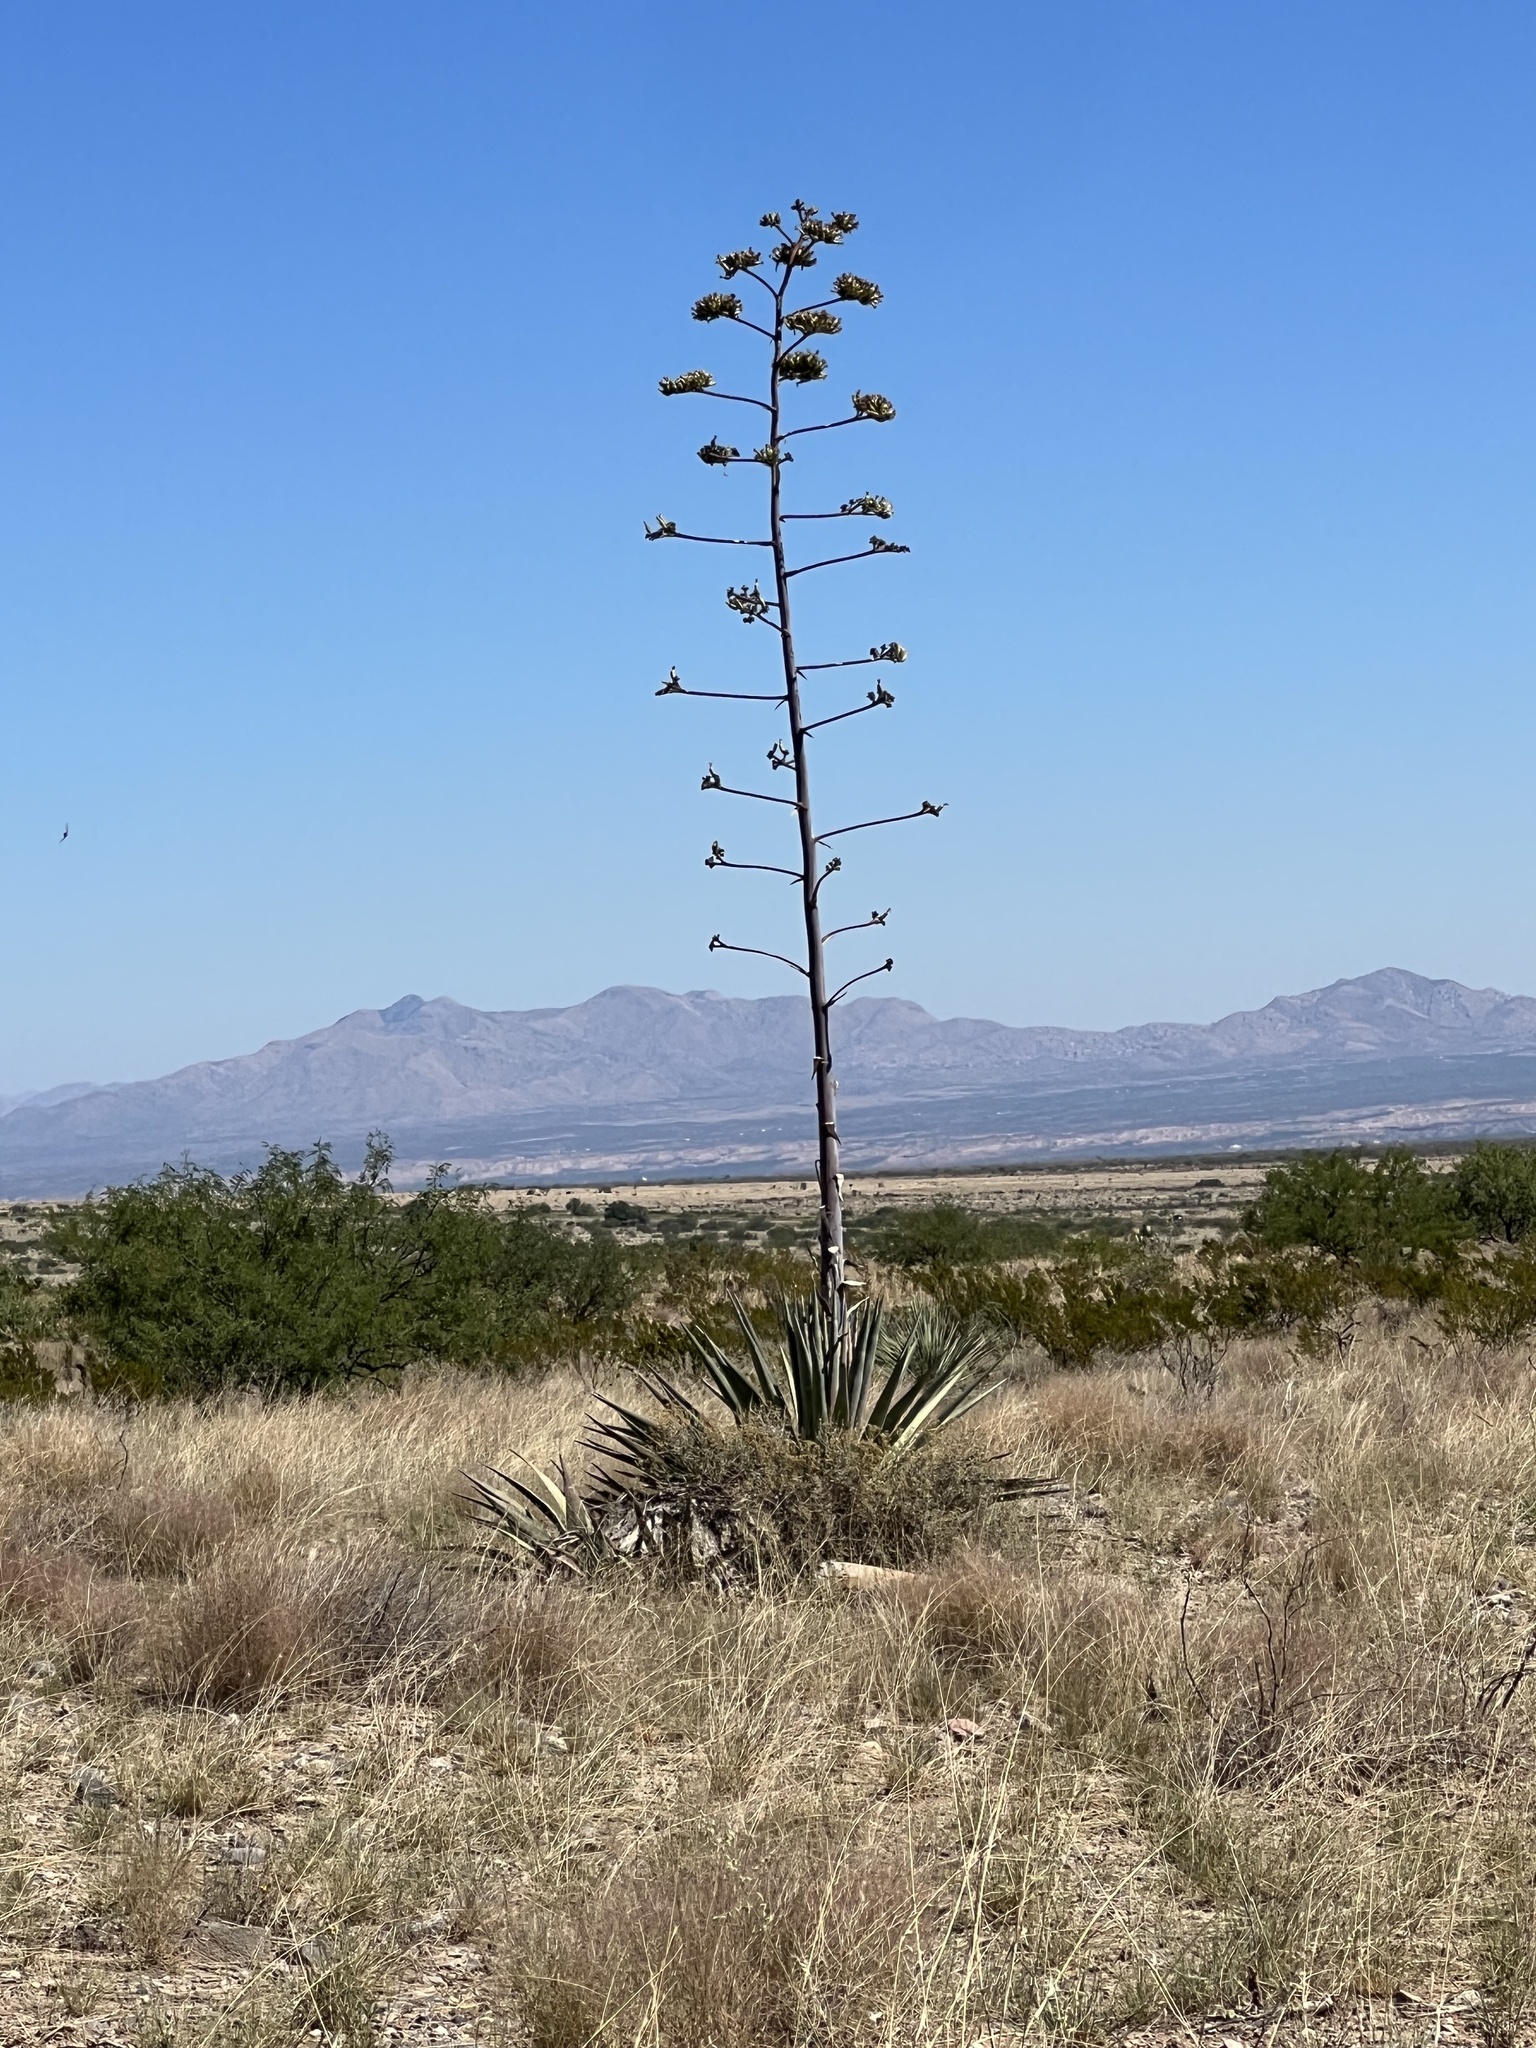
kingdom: Plantae
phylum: Tracheophyta
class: Liliopsida
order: Asparagales
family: Asparagaceae
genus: Agave
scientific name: Agave palmeri
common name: Palmer agave
